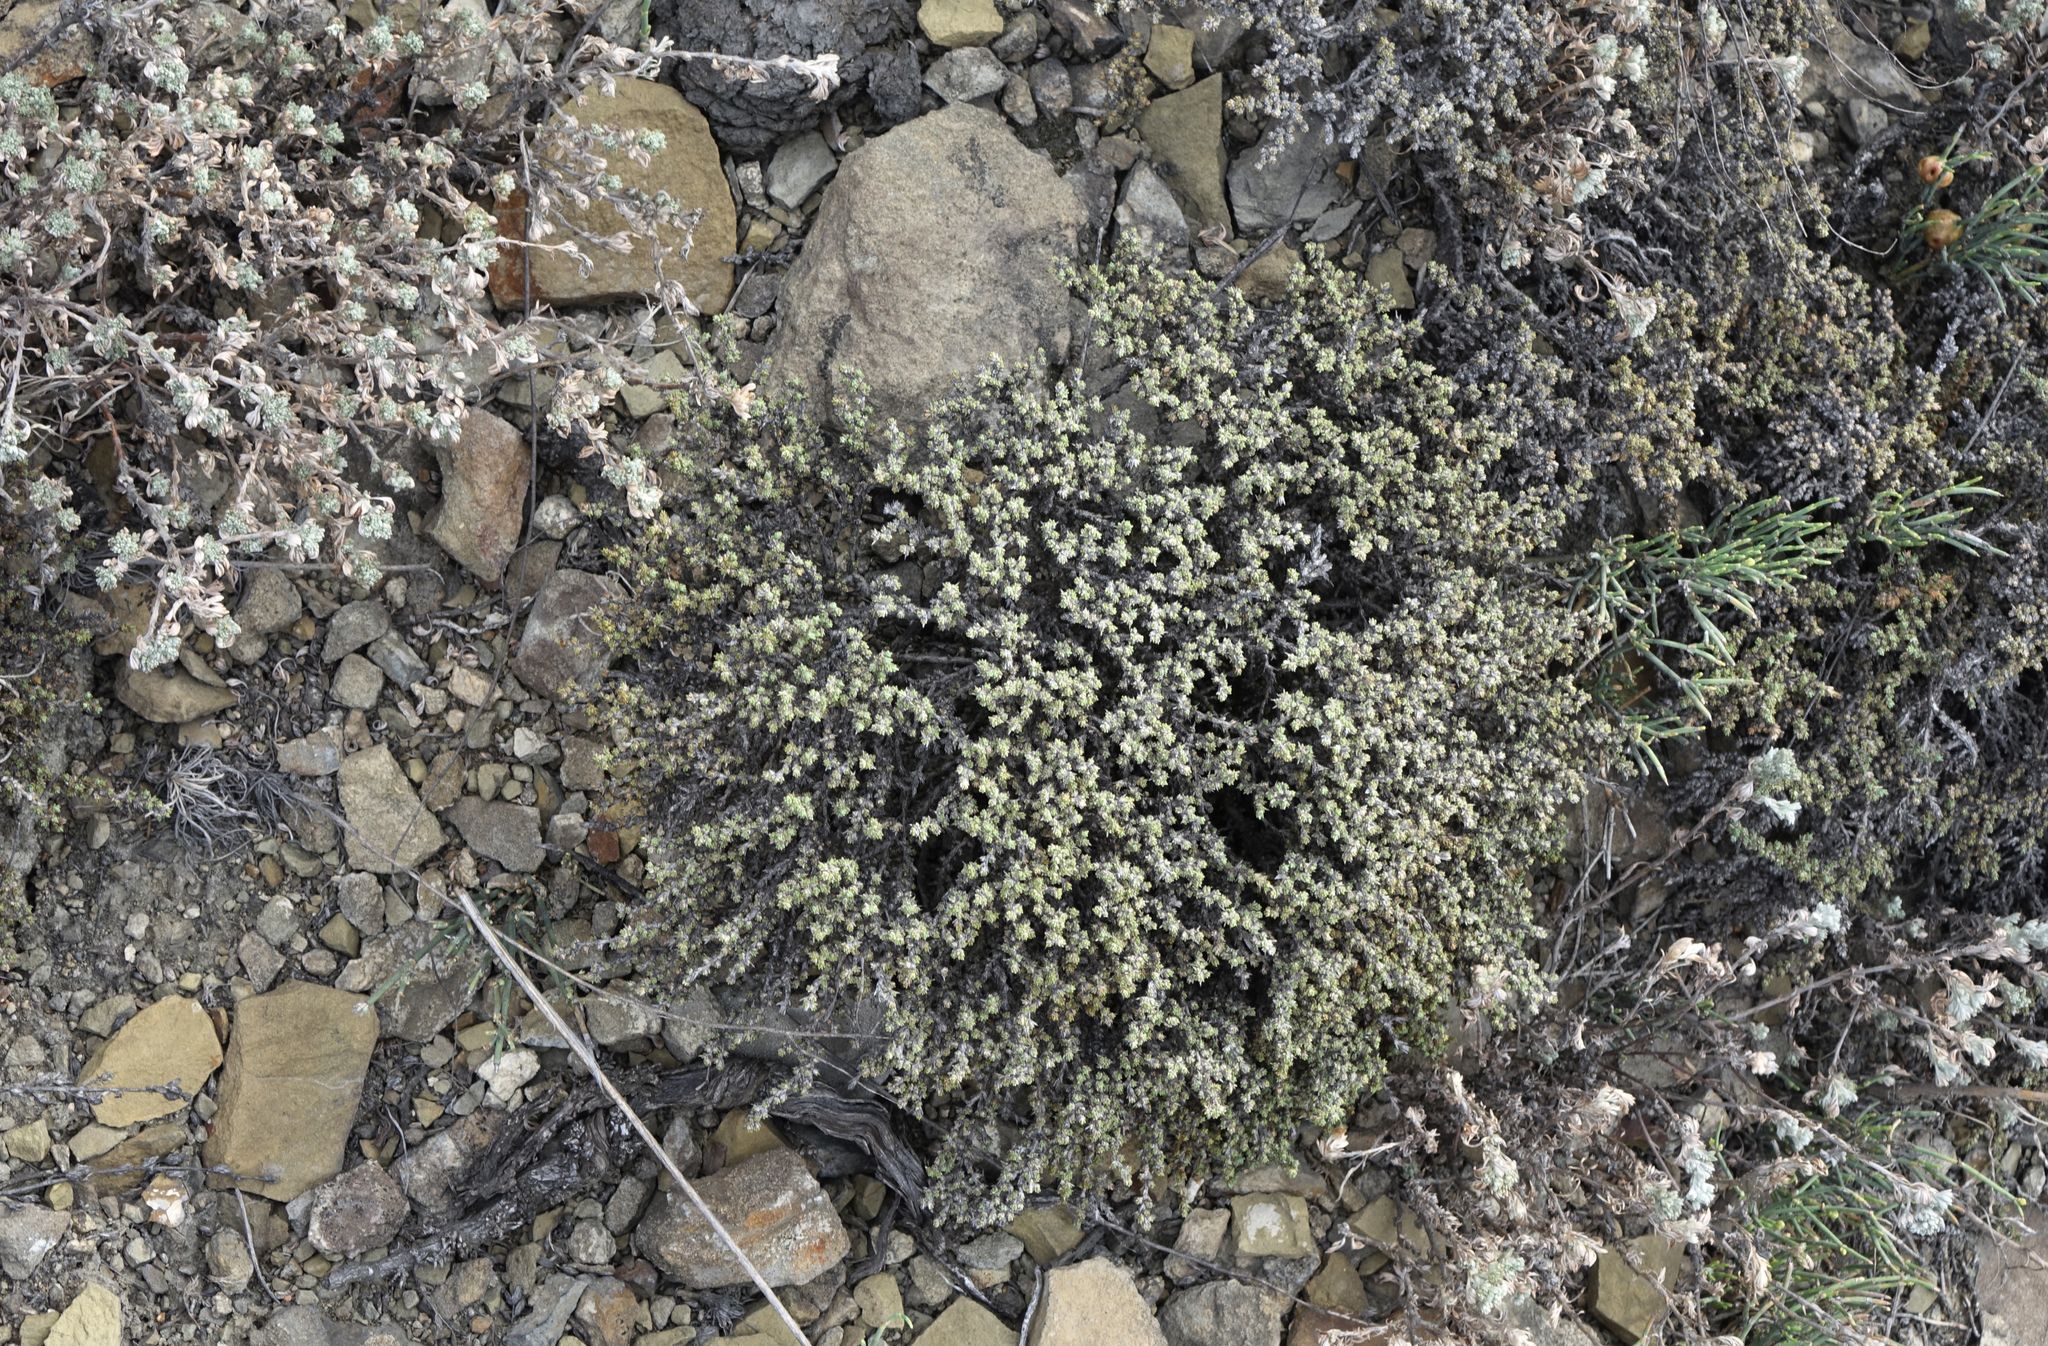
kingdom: Plantae
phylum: Tracheophyta
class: Magnoliopsida
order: Caryophyllales
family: Amaranthaceae
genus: Nanophyton
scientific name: Nanophyton grubovii
